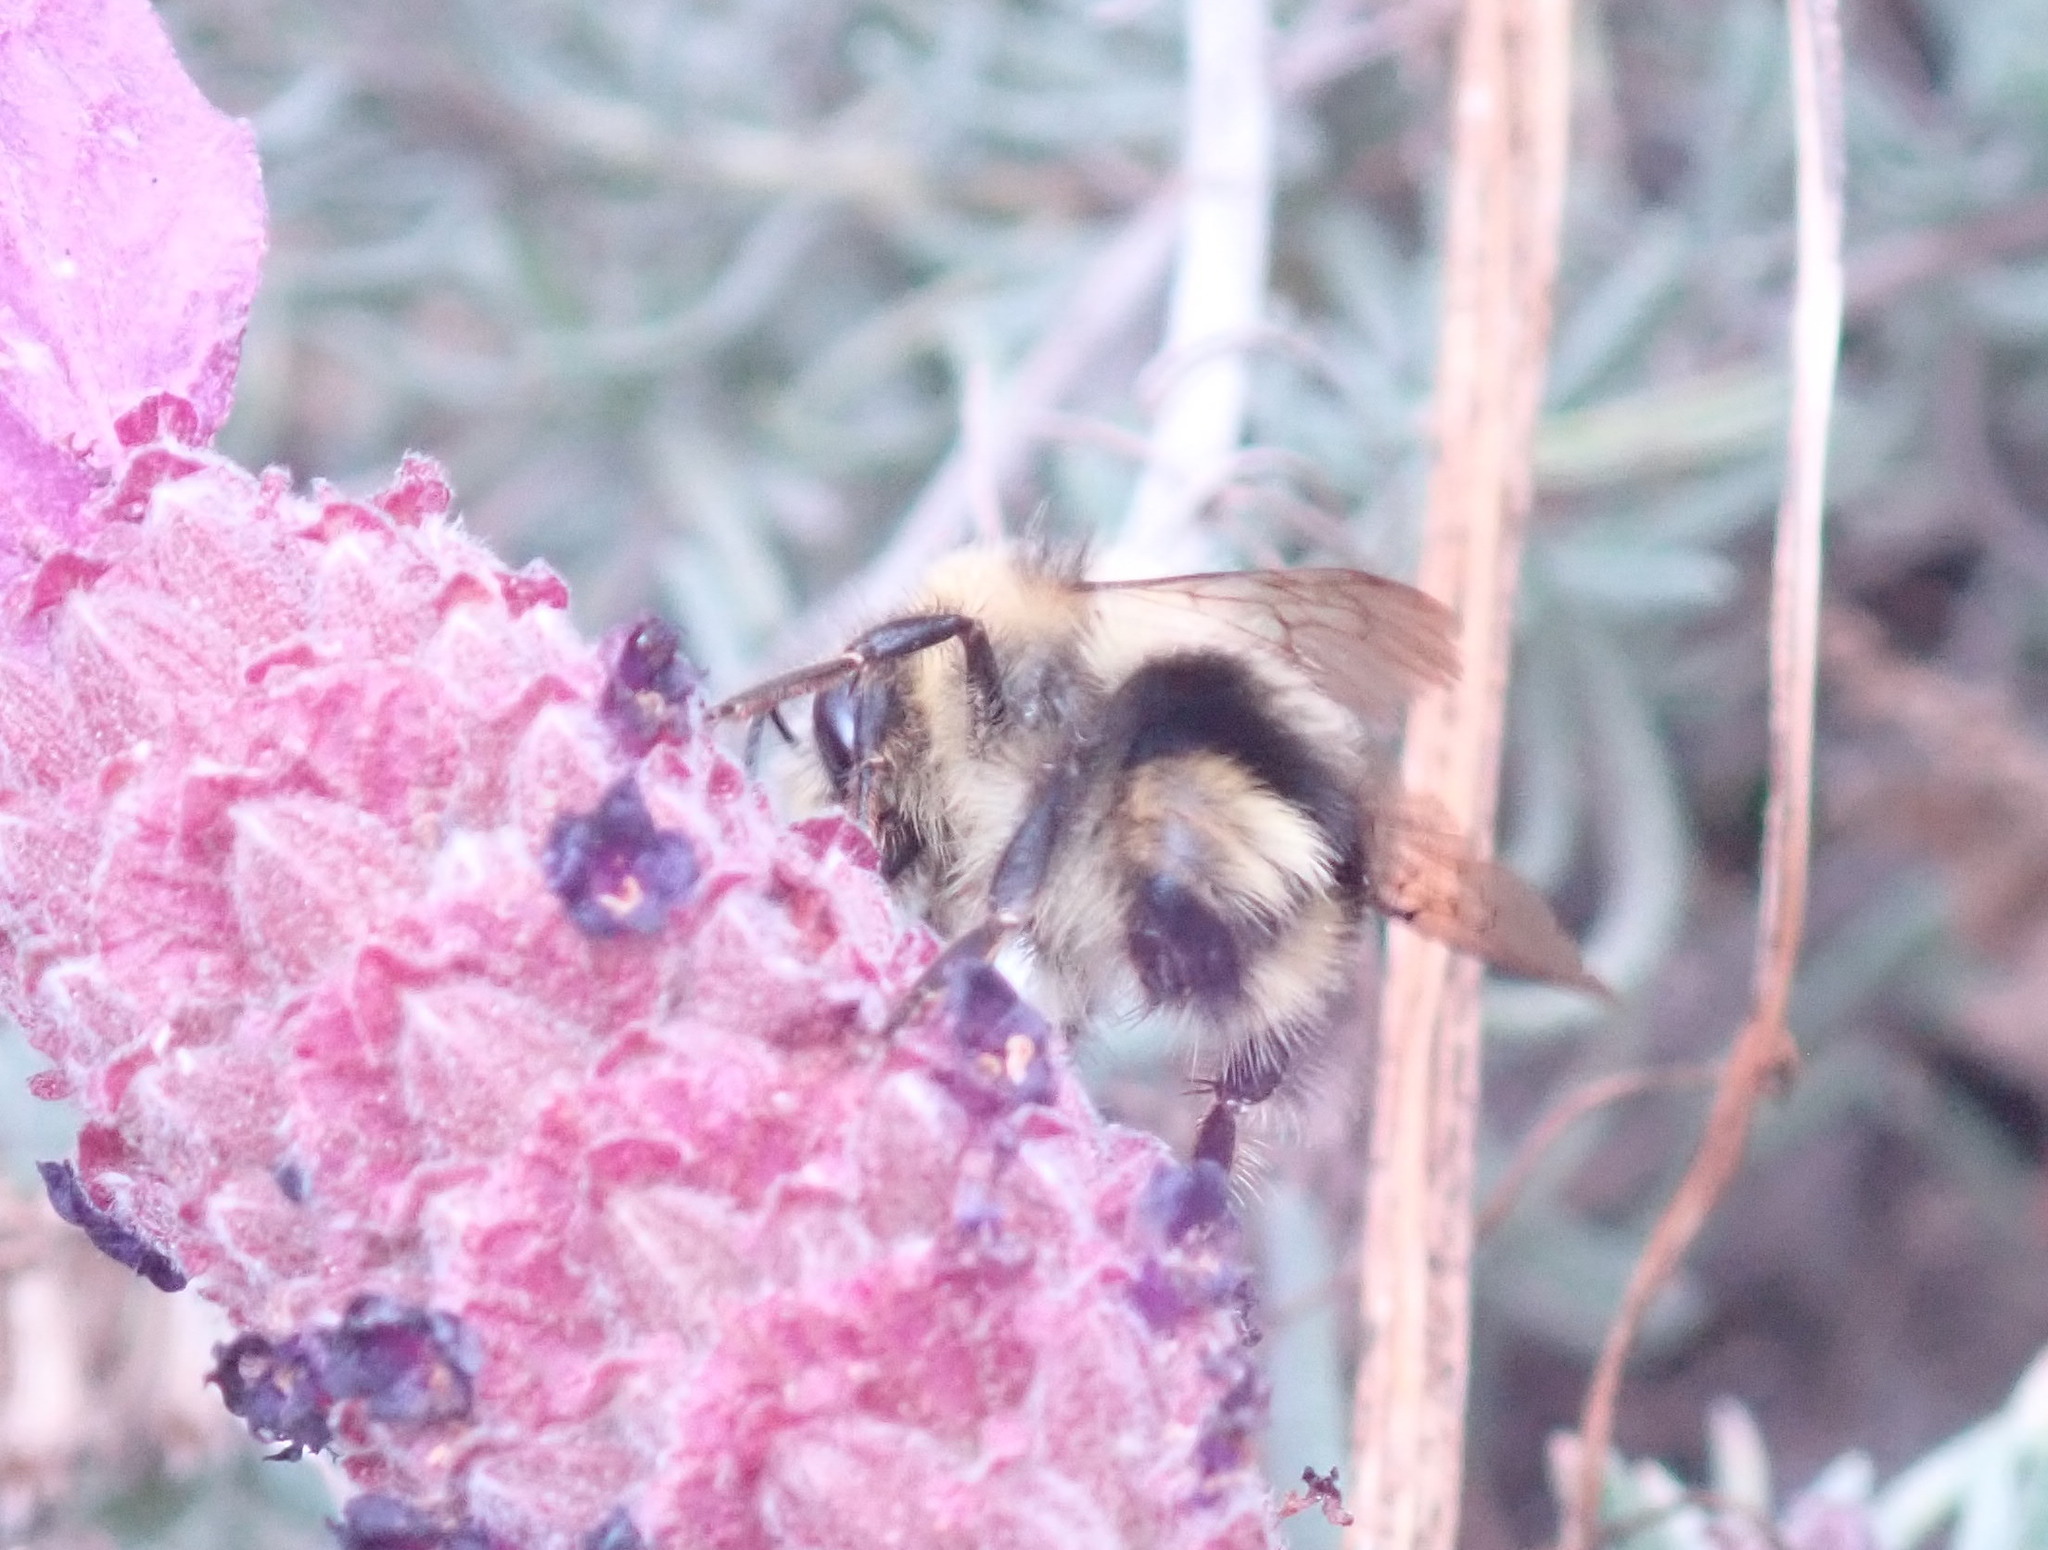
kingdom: Animalia
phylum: Arthropoda
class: Insecta
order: Hymenoptera
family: Apidae
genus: Bombus
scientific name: Bombus melanopygus
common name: Black tail bumble bee
